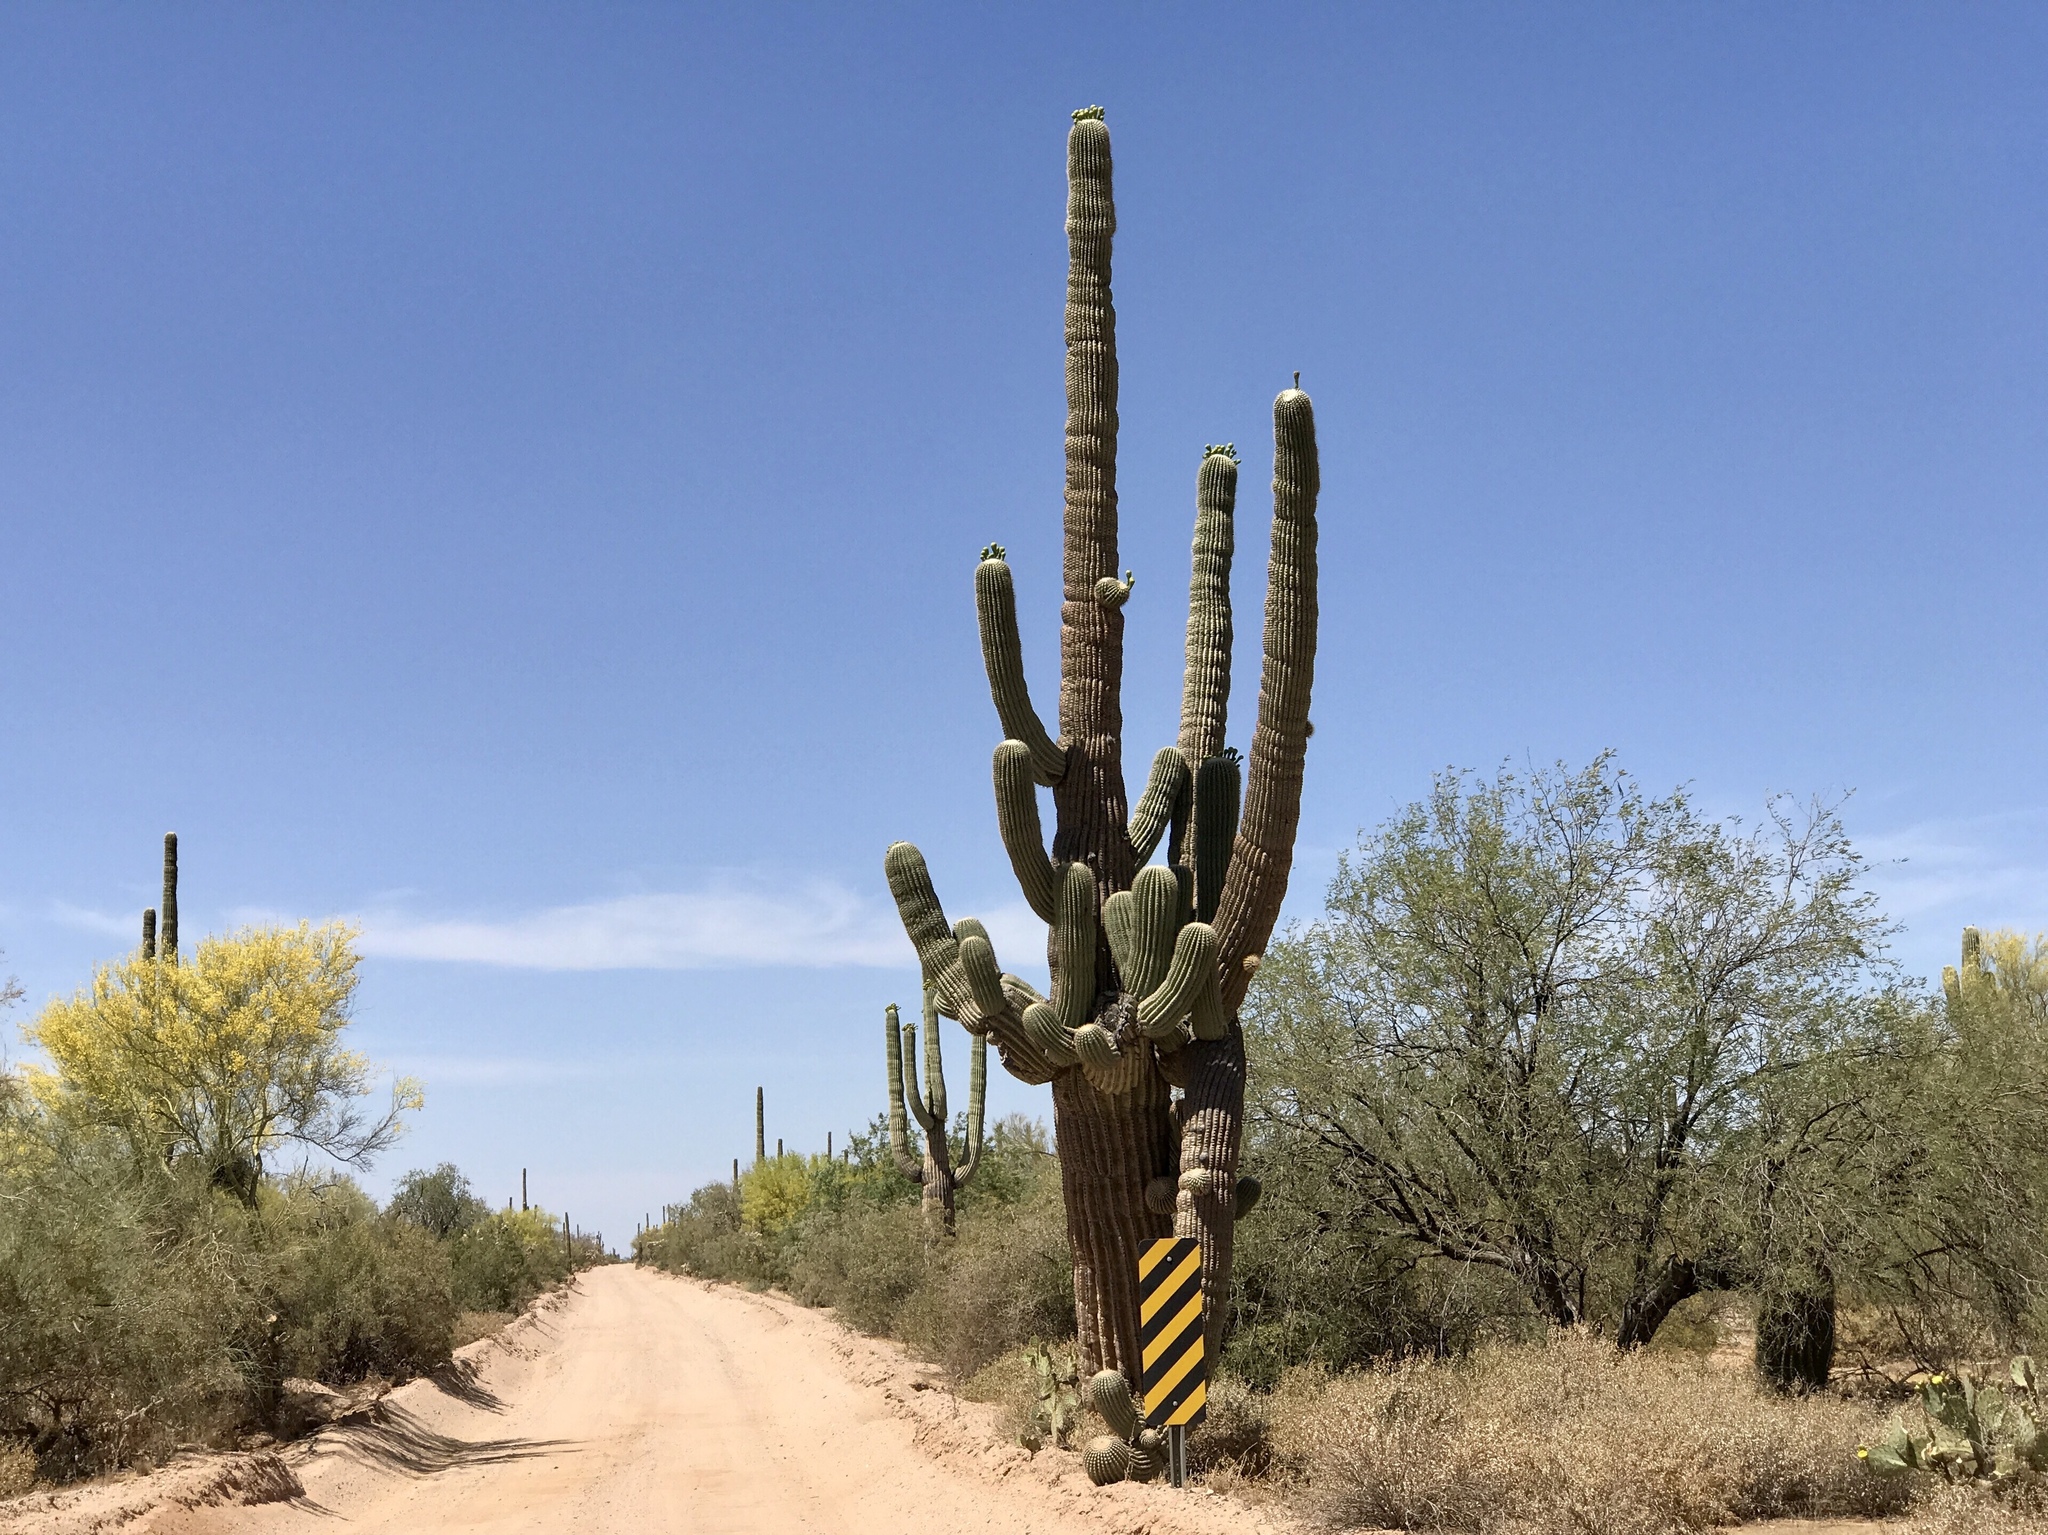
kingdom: Plantae
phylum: Tracheophyta
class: Magnoliopsida
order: Caryophyllales
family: Cactaceae
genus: Carnegiea
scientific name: Carnegiea gigantea
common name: Saguaro
